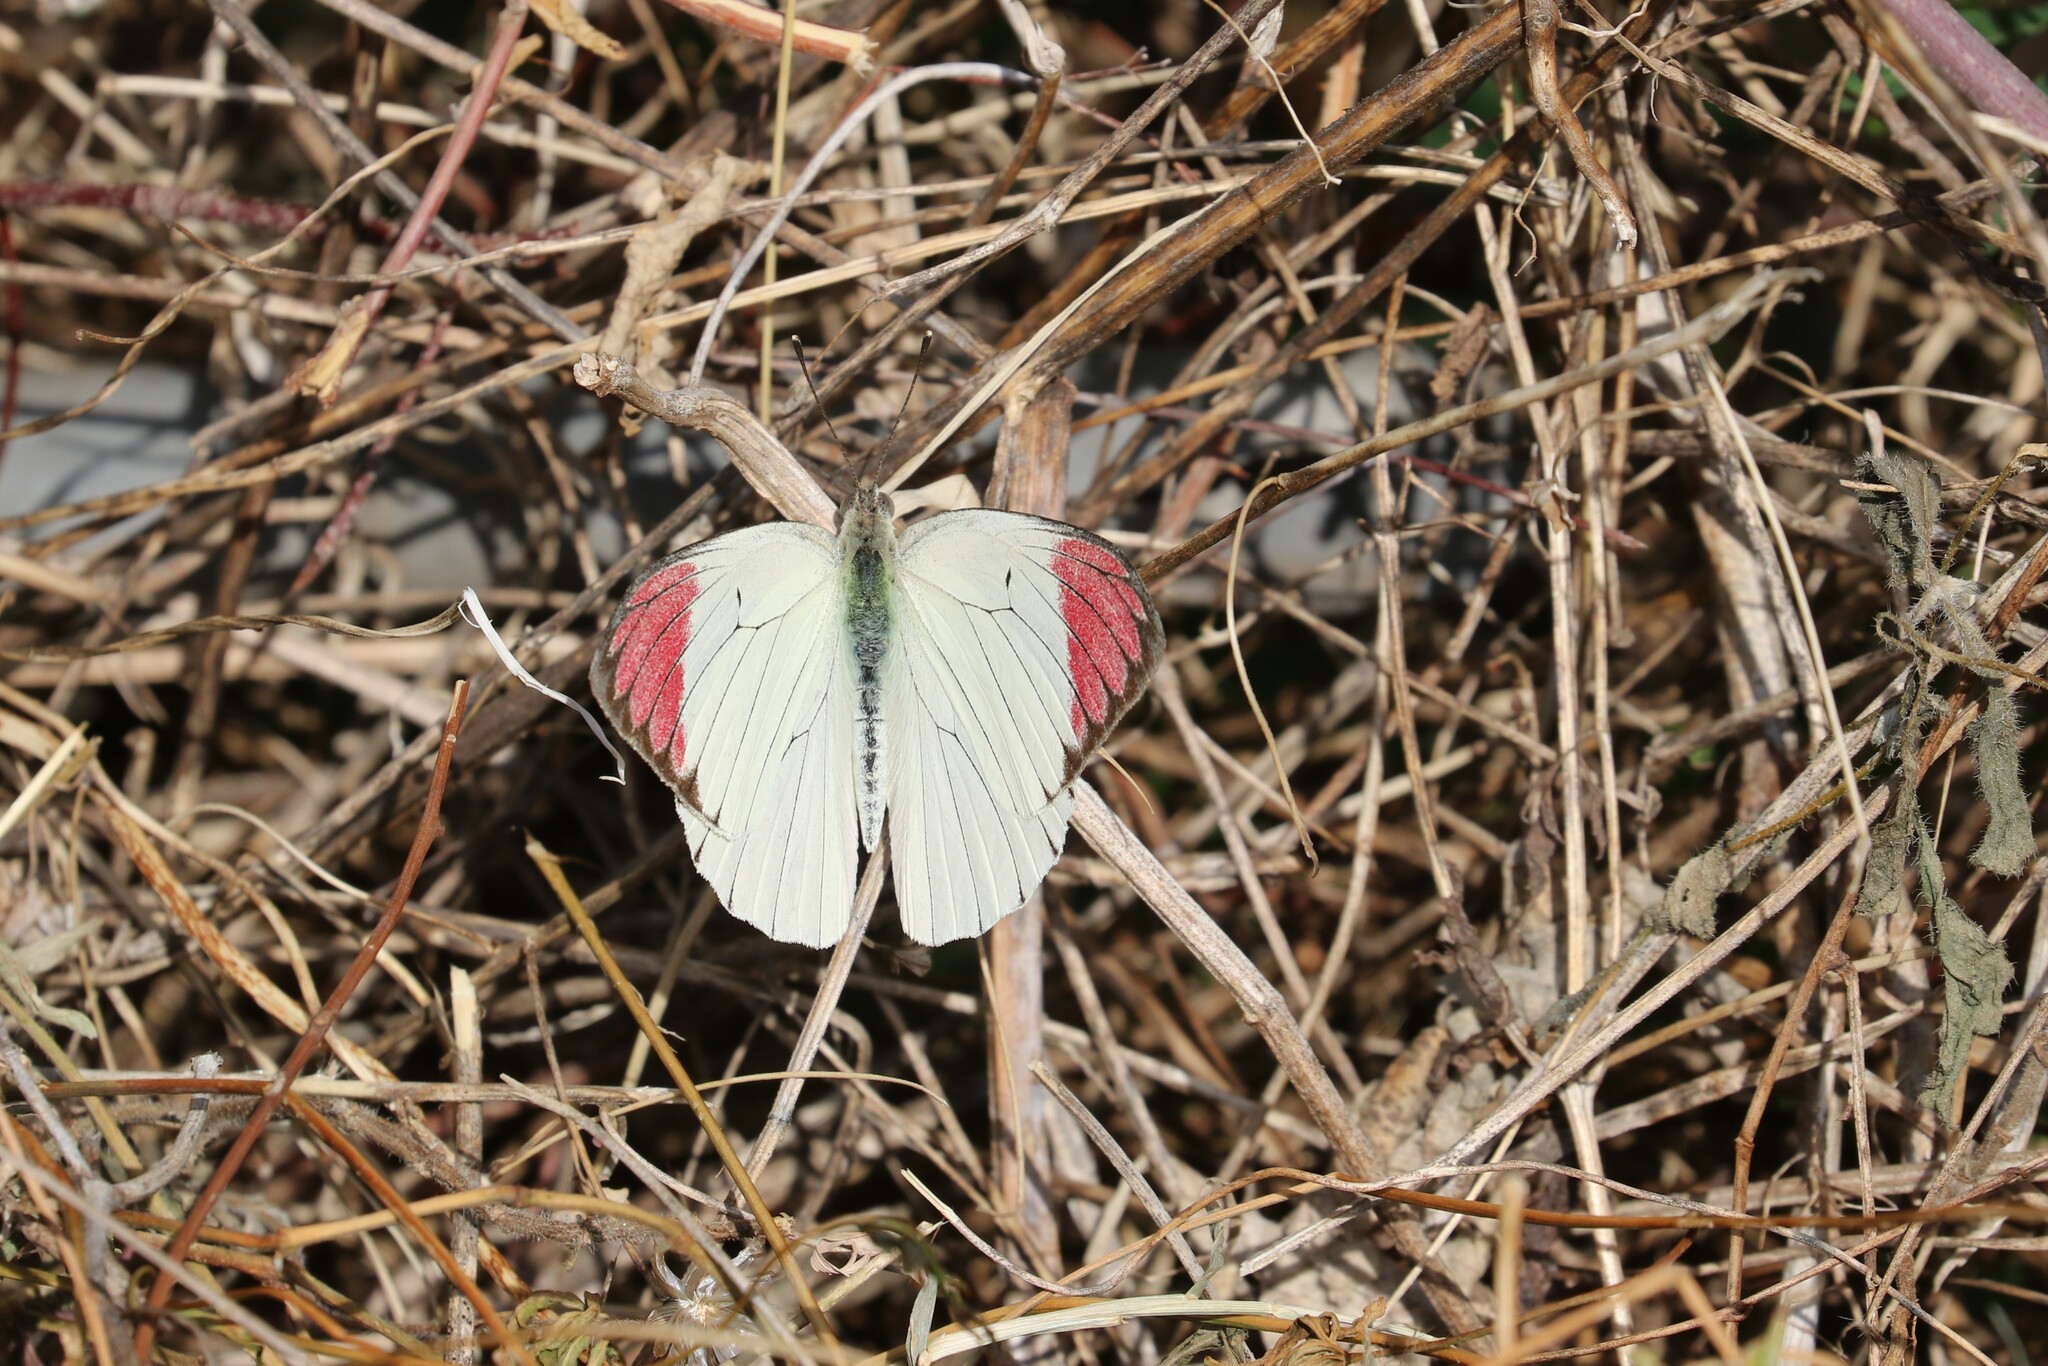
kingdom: Animalia
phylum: Arthropoda
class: Insecta
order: Lepidoptera
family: Pieridae
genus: Colotis
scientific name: Colotis hetaera
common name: Coast purple tip
